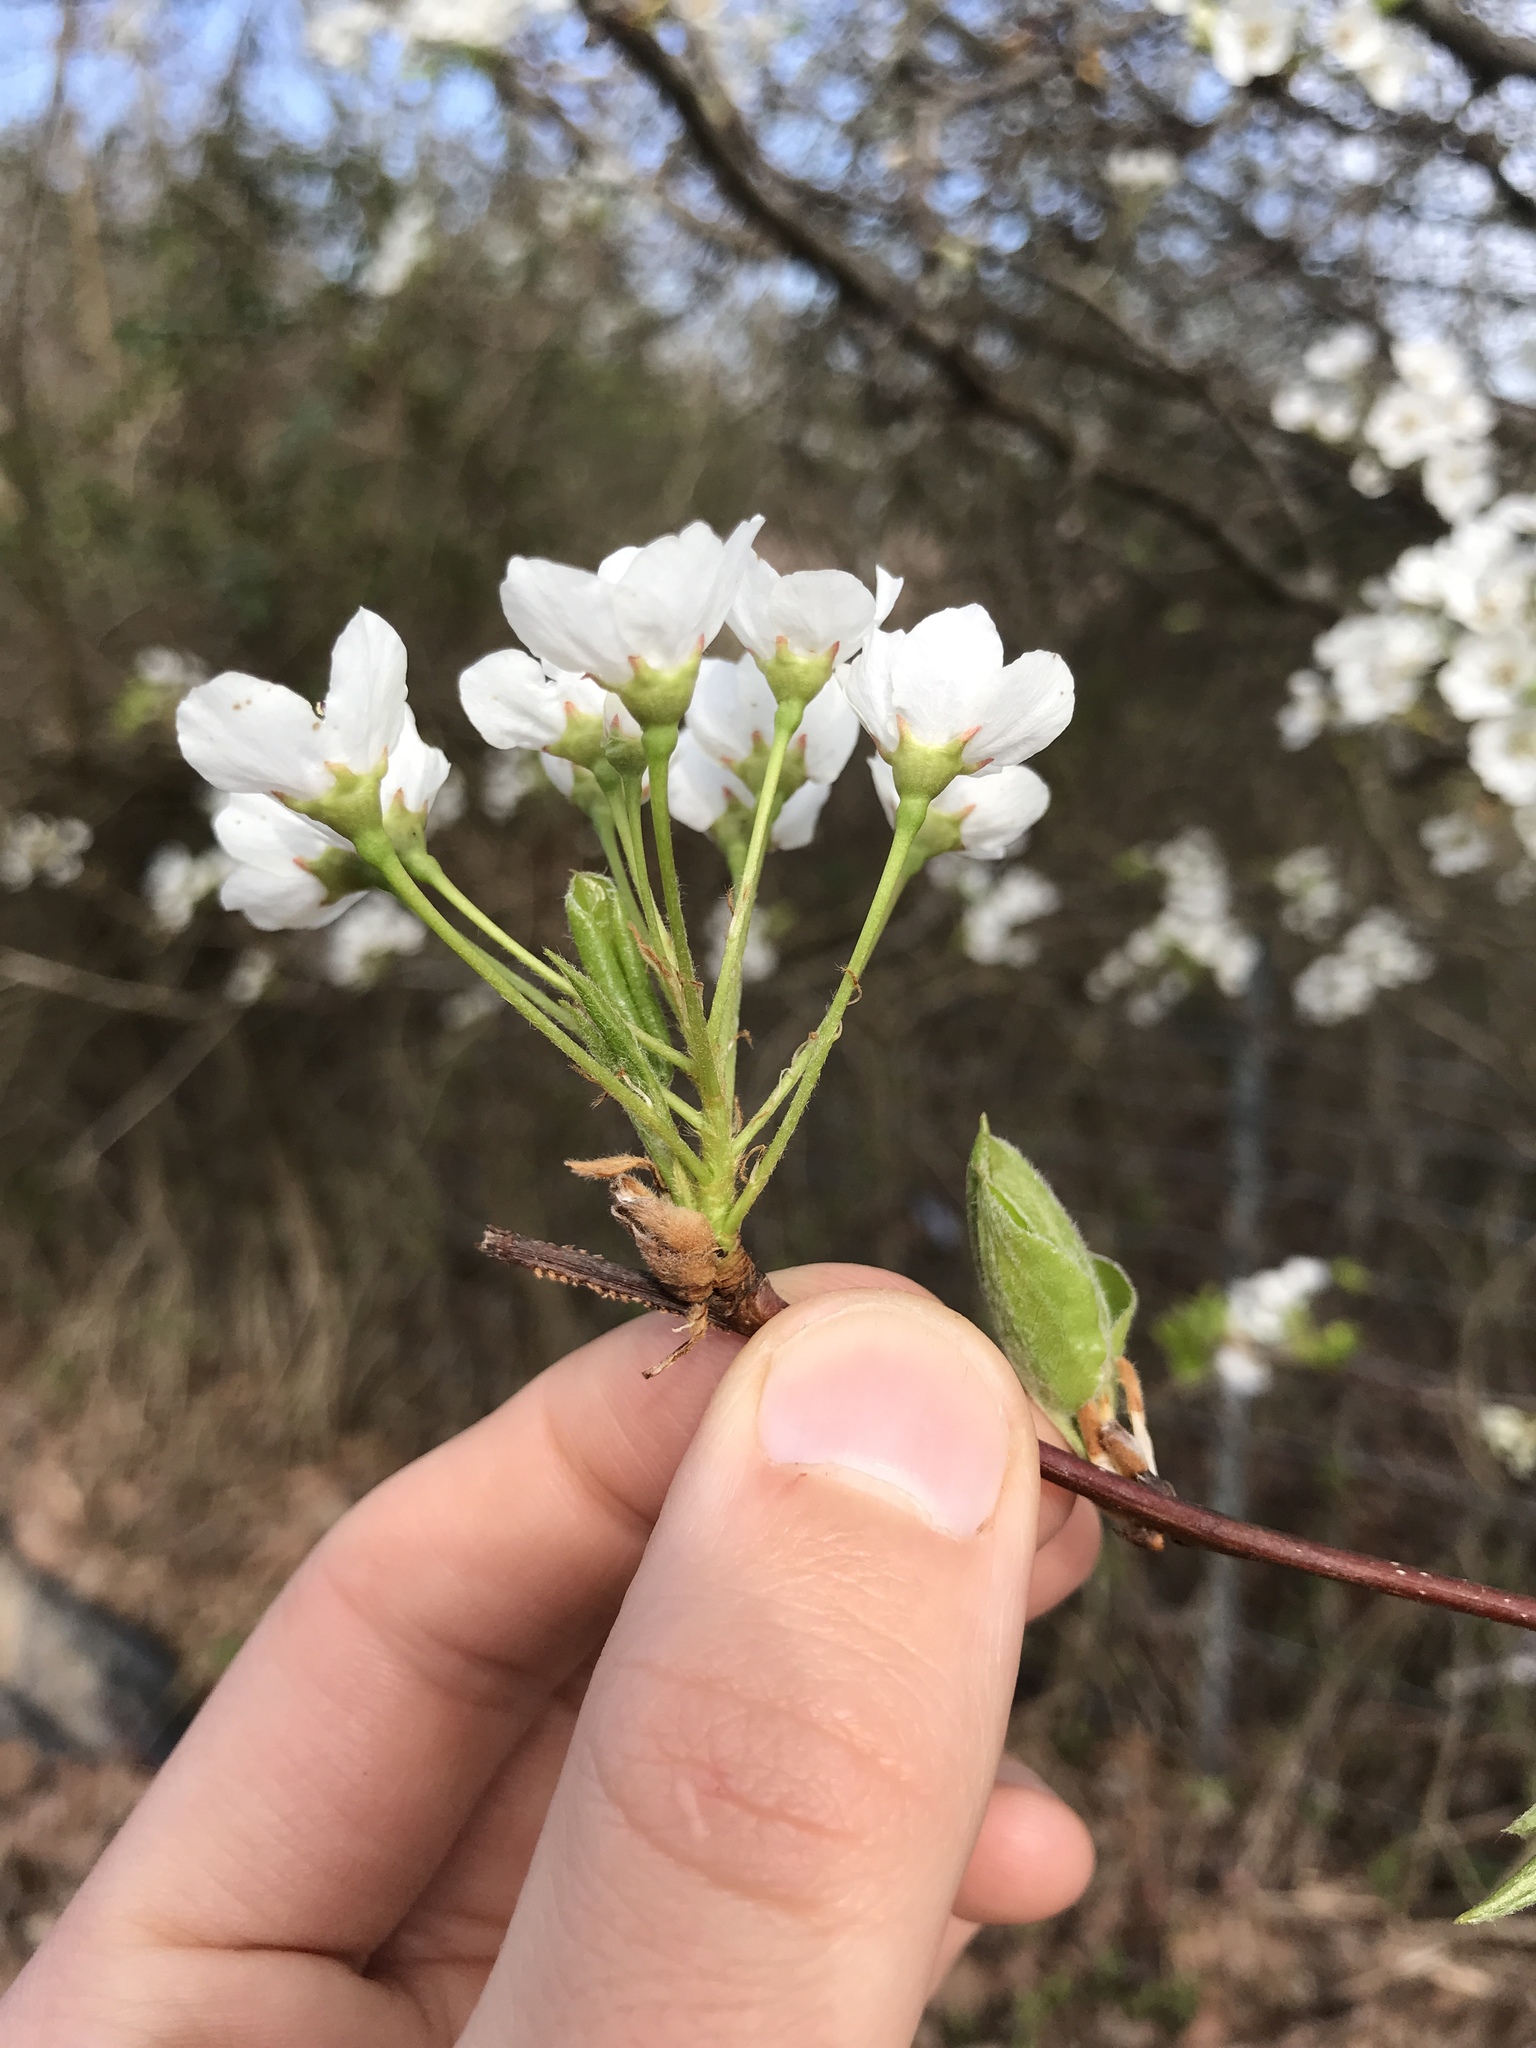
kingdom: Plantae
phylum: Tracheophyta
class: Magnoliopsida
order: Rosales
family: Rosaceae
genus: Pyrus
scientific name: Pyrus calleryana
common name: Callery pear
